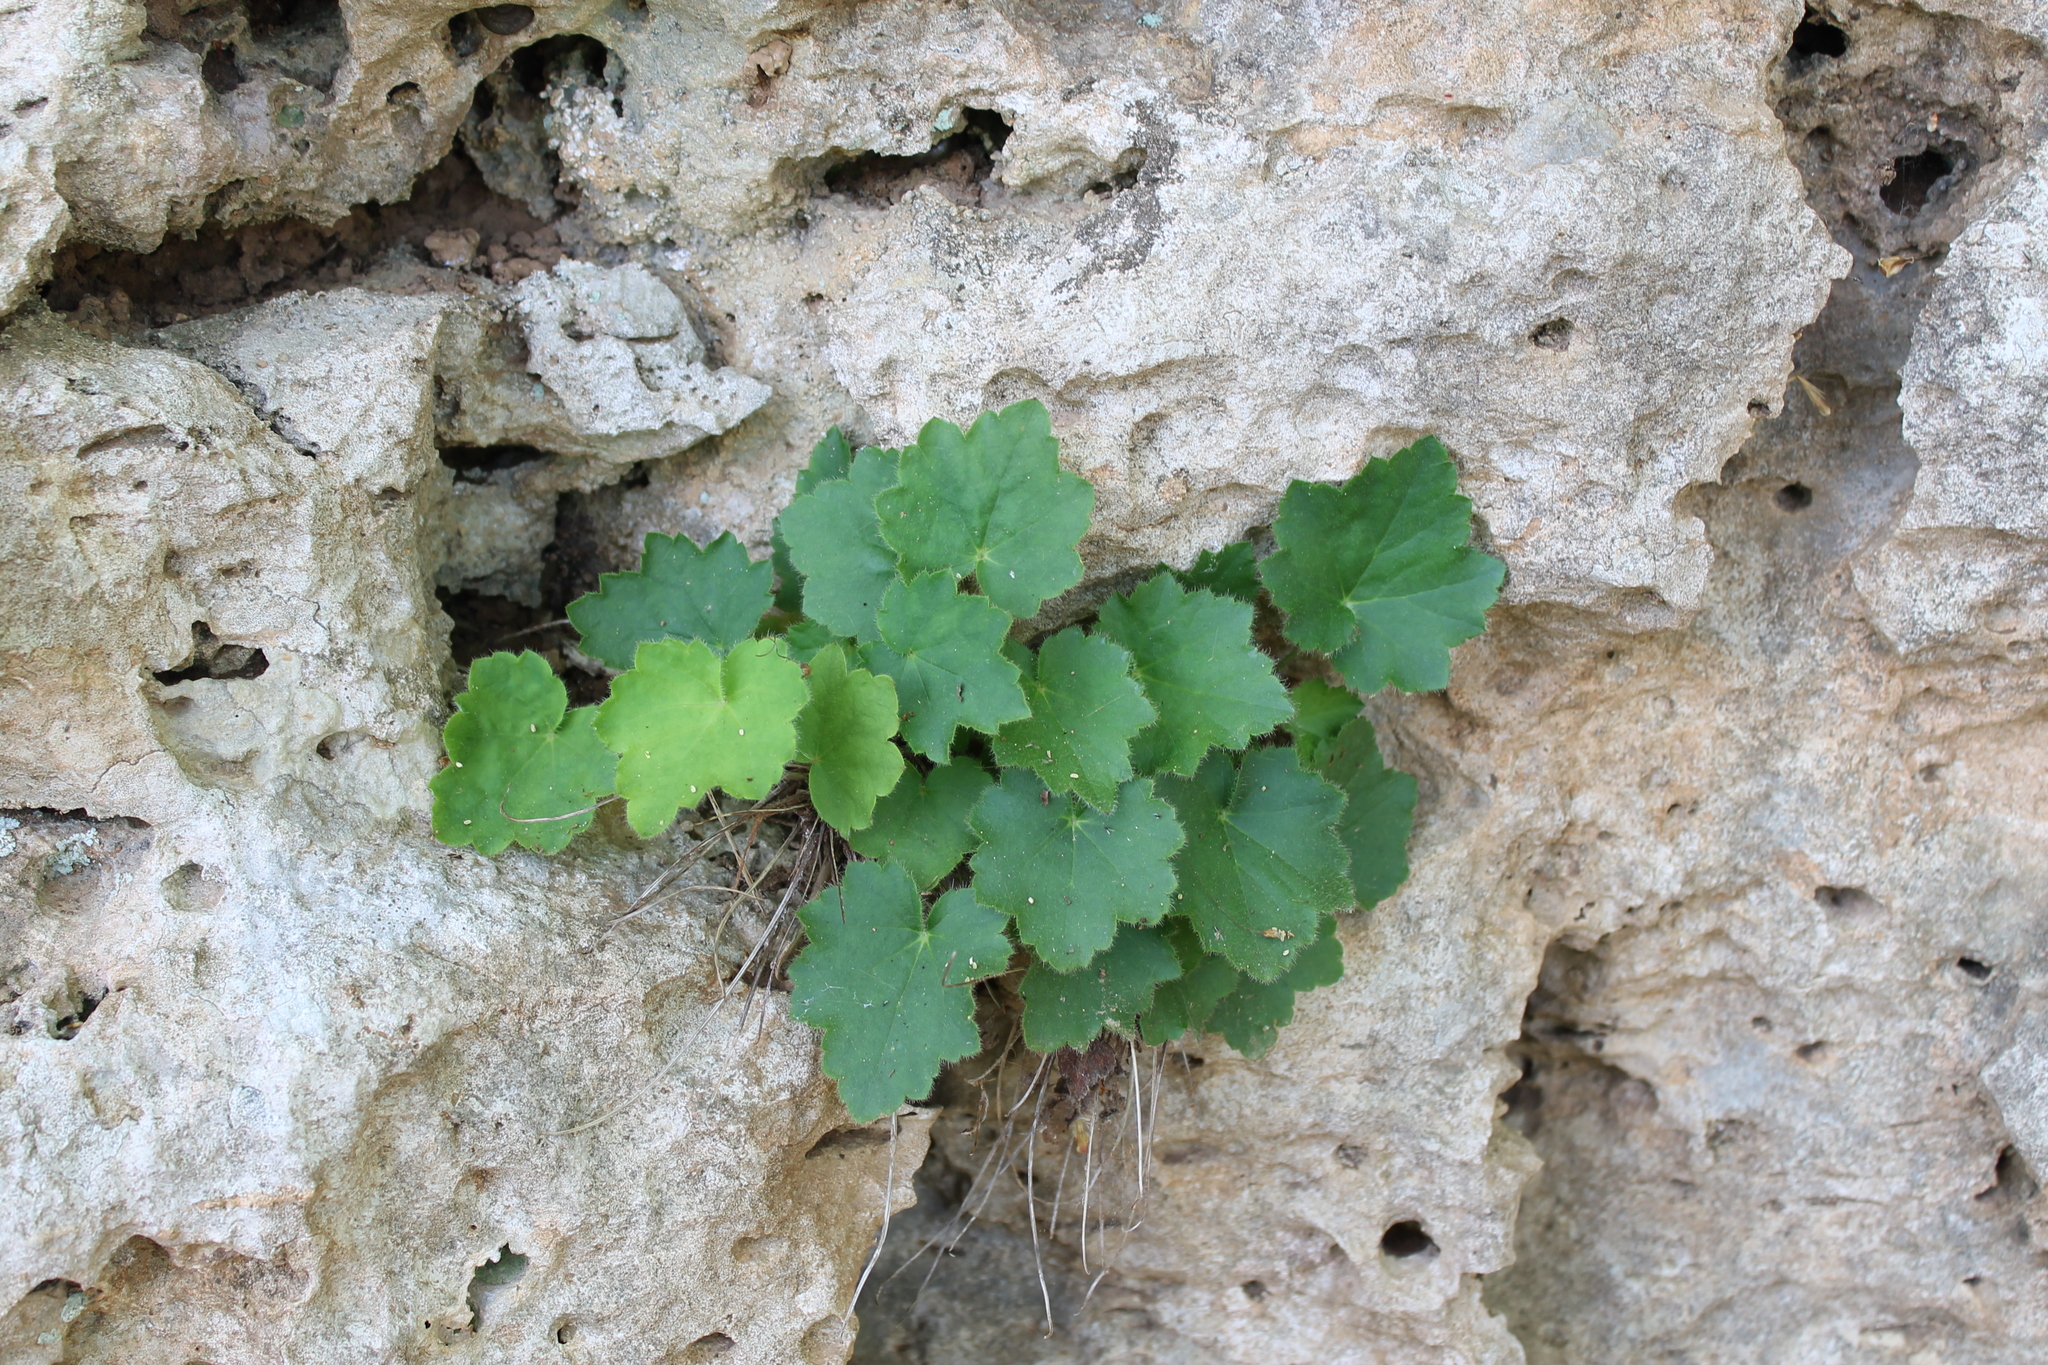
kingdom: Plantae
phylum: Tracheophyta
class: Magnoliopsida
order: Saxifragales
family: Saxifragaceae
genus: Heuchera
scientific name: Heuchera villosa
